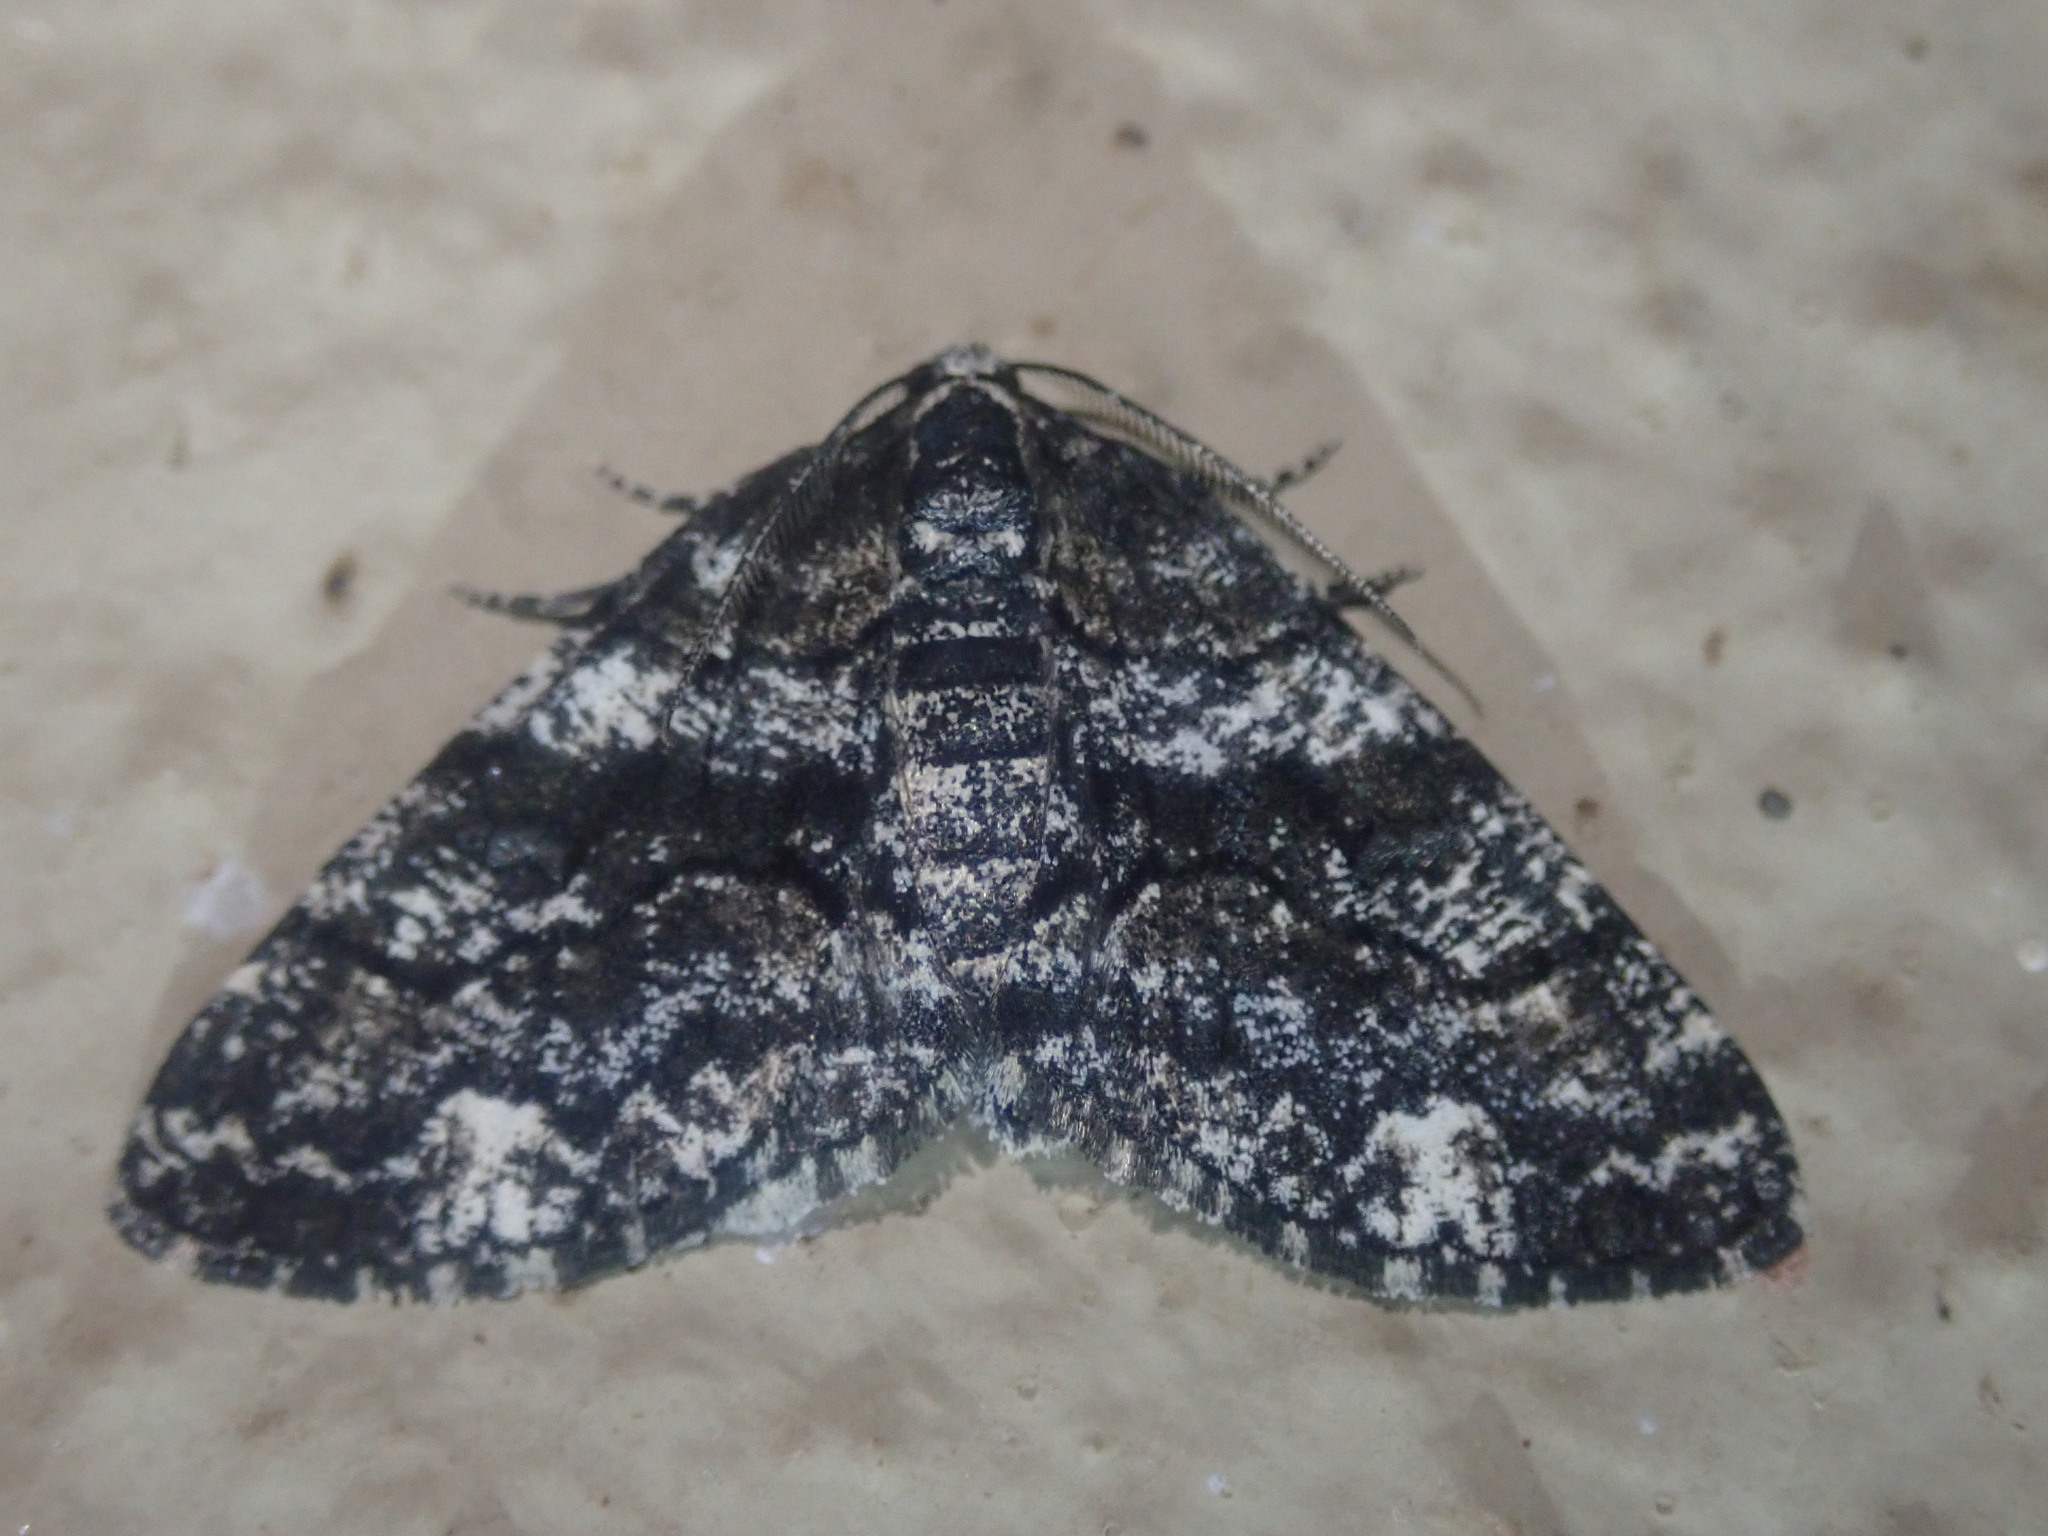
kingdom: Animalia
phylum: Arthropoda
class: Insecta
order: Lepidoptera
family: Geometridae
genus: Phthonandria
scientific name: Phthonandria pinguis
